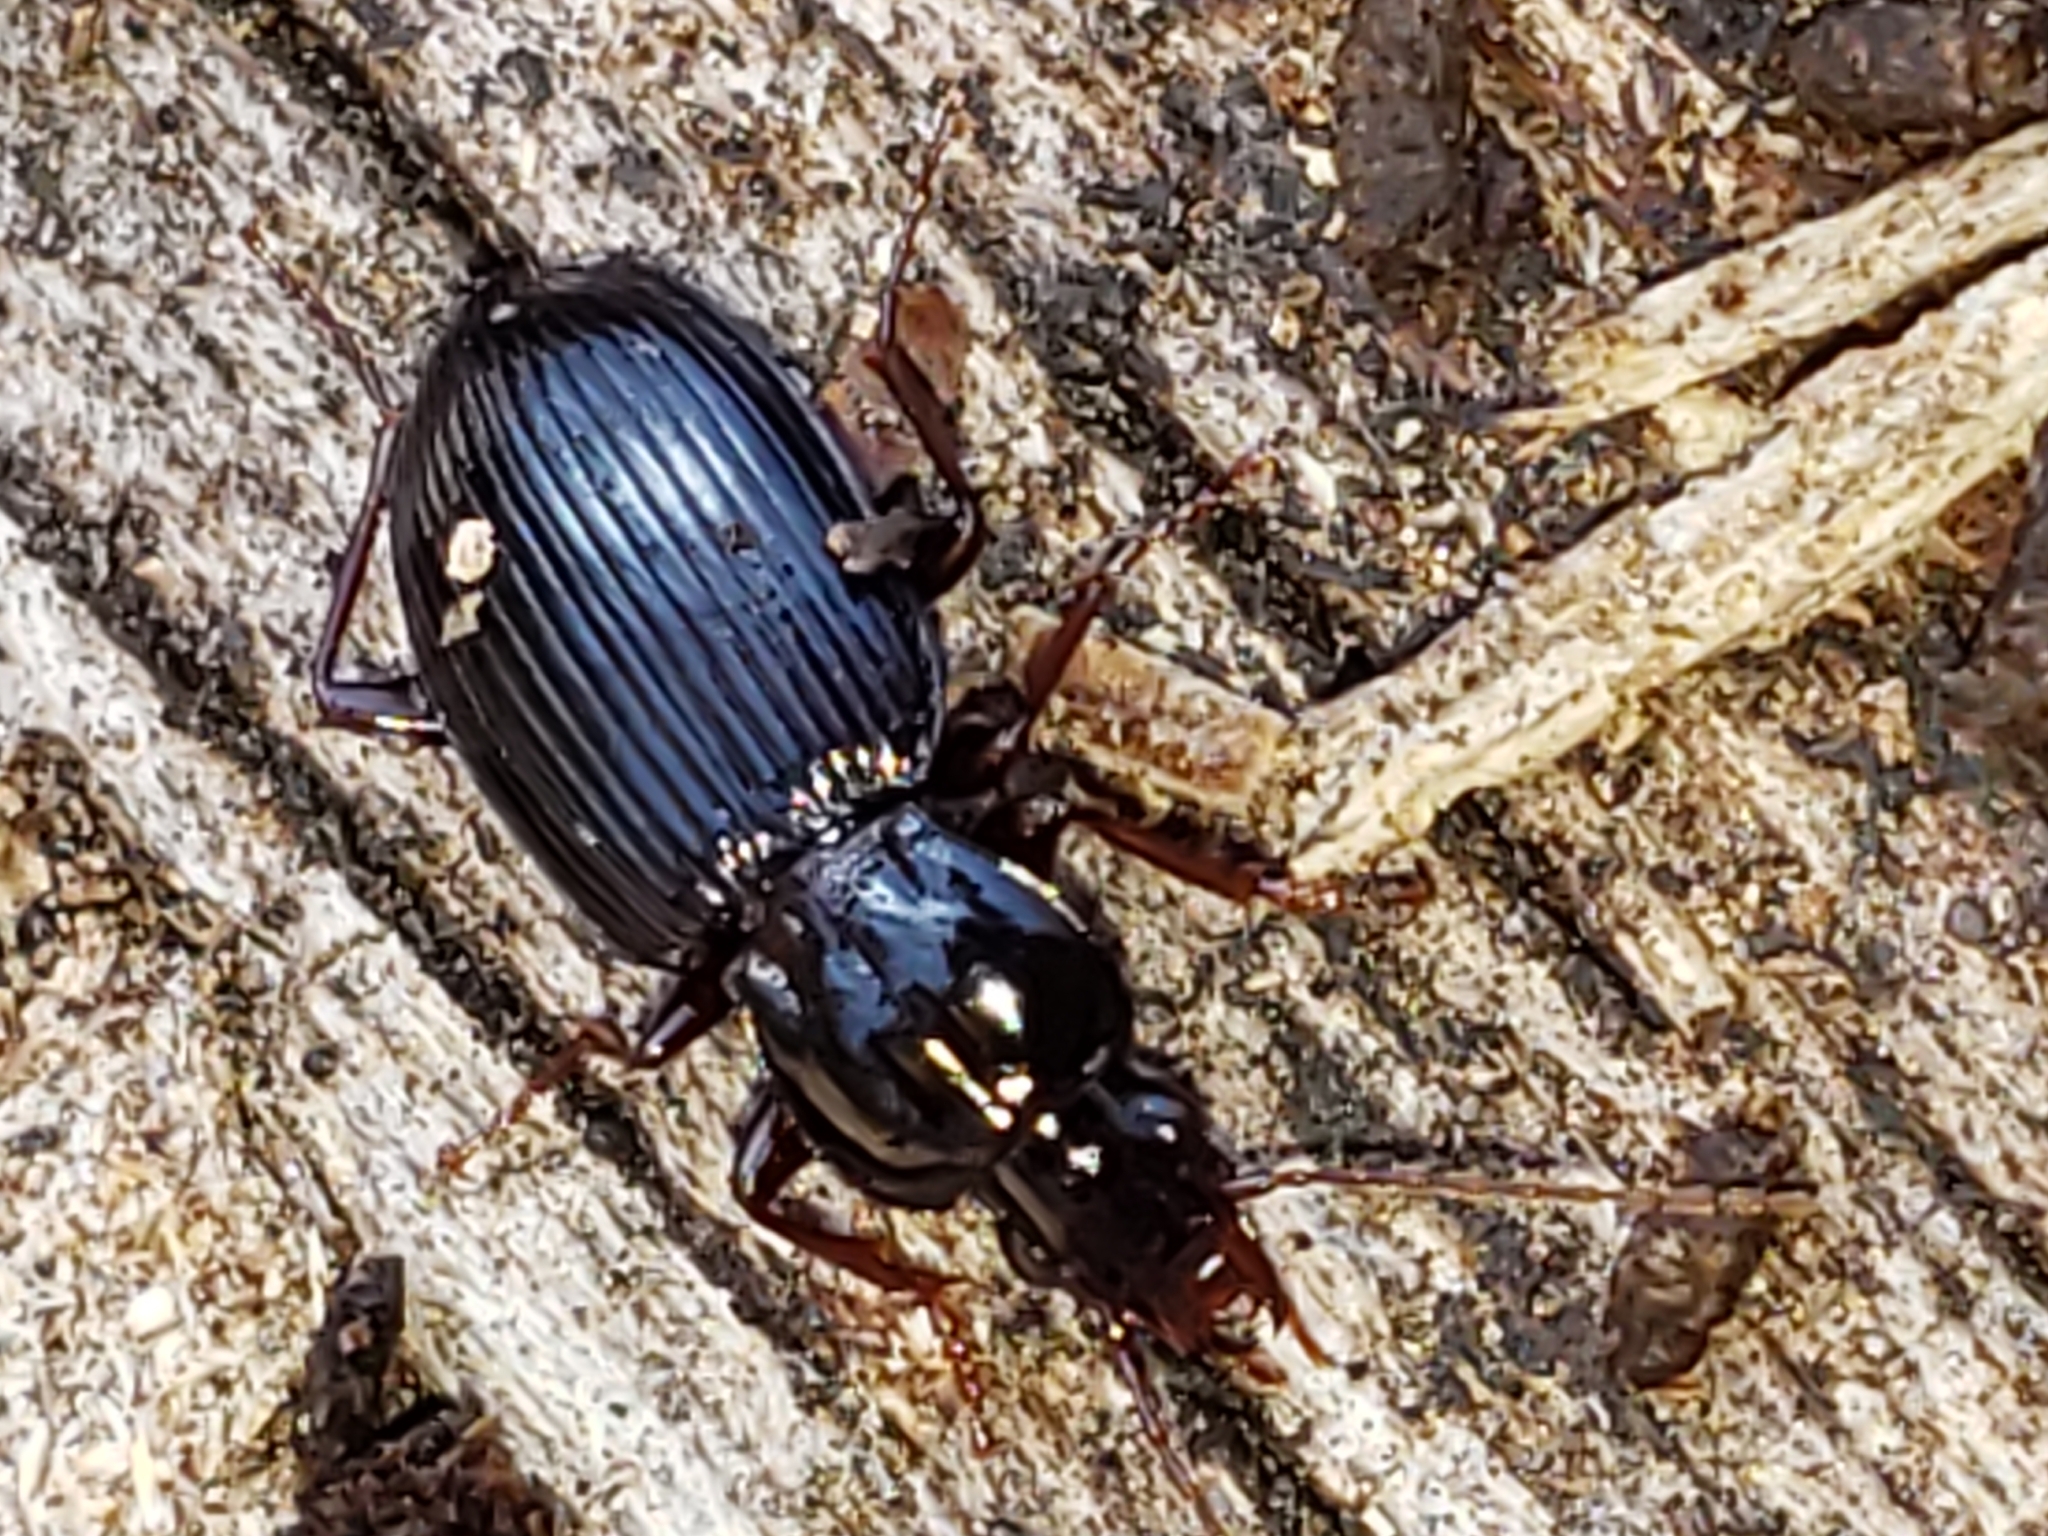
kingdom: Animalia
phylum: Arthropoda
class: Insecta
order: Coleoptera
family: Carabidae
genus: Gastrellarius
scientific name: Gastrellarius honestus
